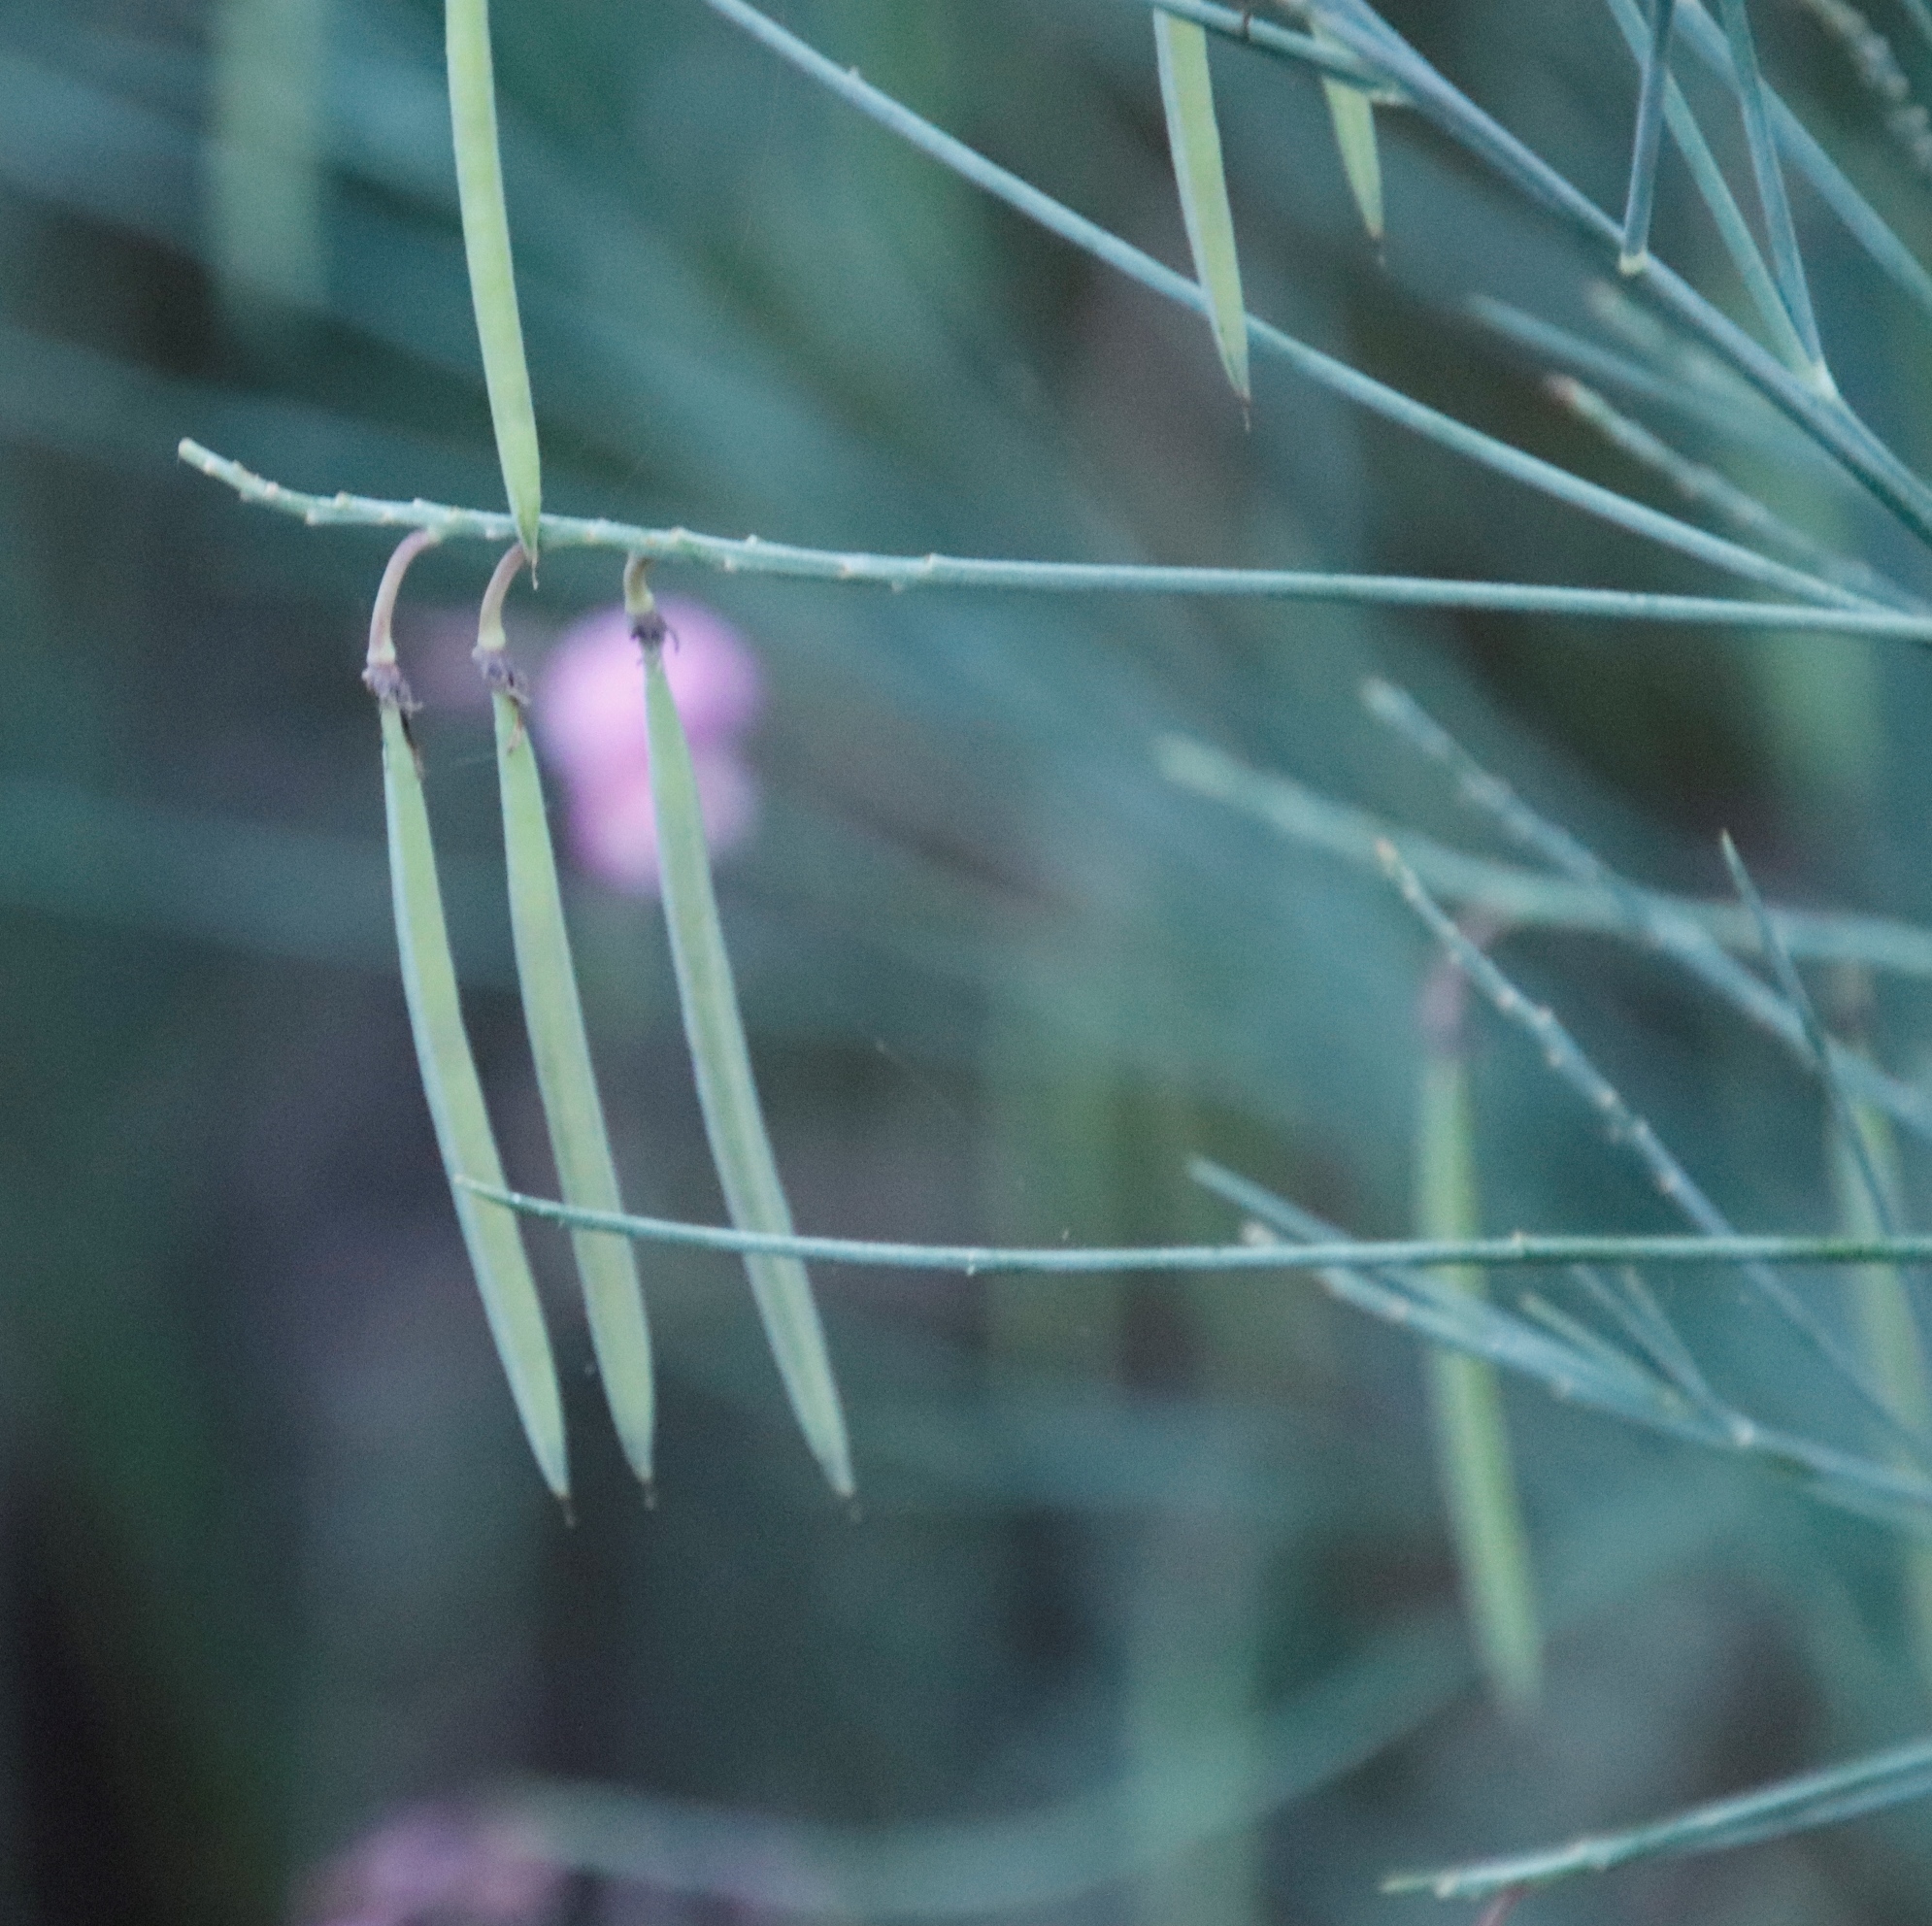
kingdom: Plantae
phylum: Tracheophyta
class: Magnoliopsida
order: Fabales
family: Fabaceae
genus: Indigofera
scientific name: Indigofera filifolia
